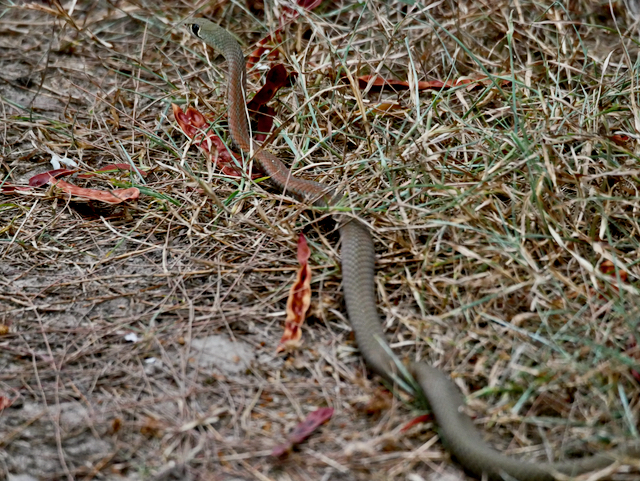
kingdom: Animalia
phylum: Chordata
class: Squamata
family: Elapidae
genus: Demansia
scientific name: Demansia psammophis
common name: Yellow-faced whip snake
